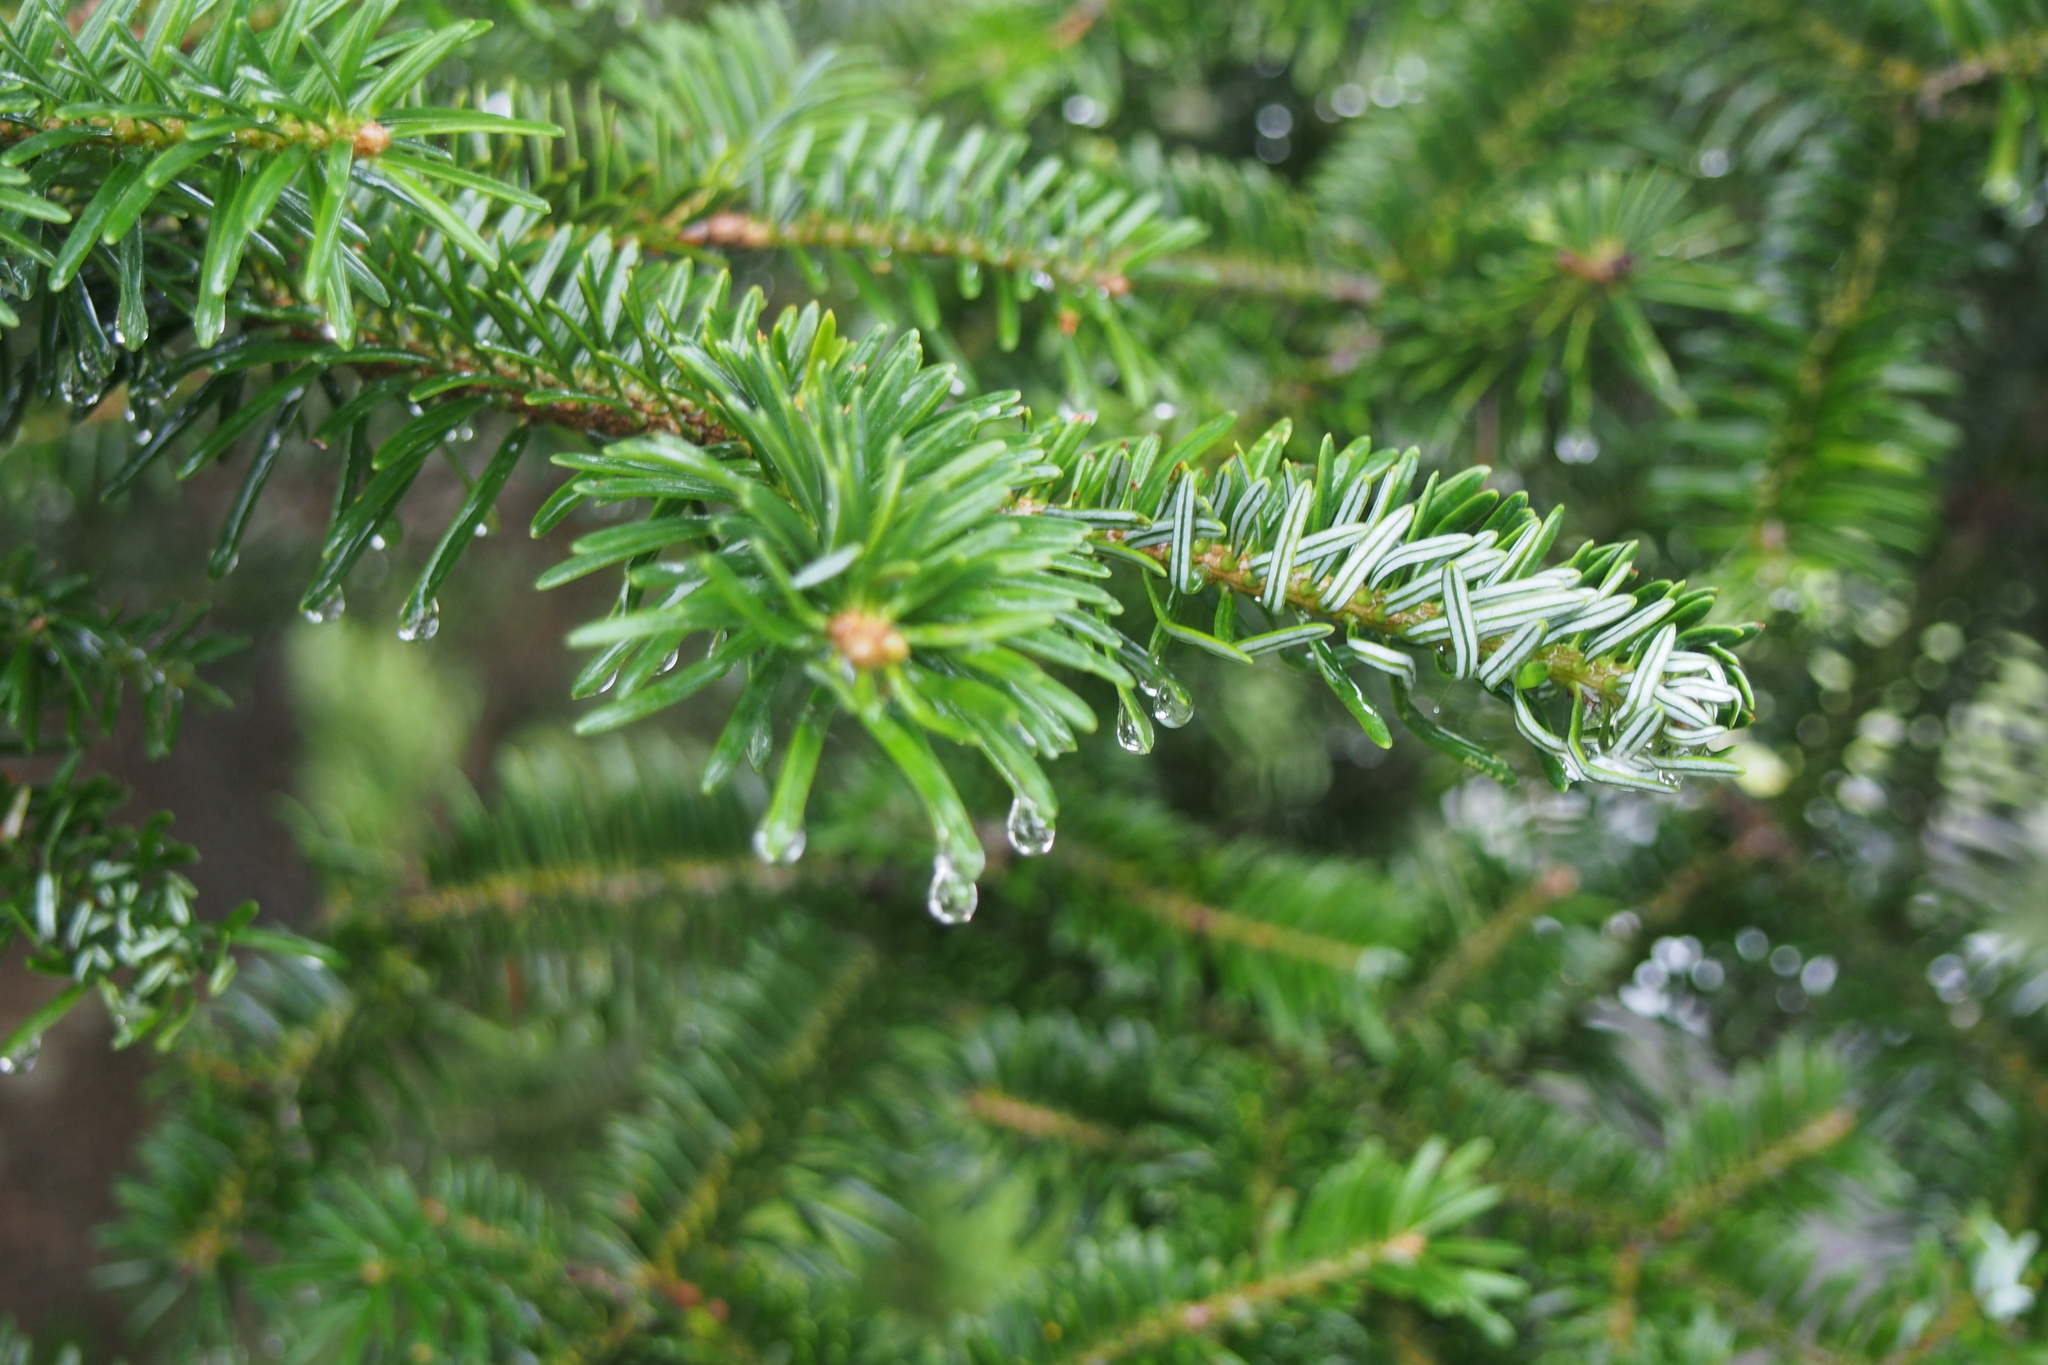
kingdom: Plantae
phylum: Tracheophyta
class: Pinopsida
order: Pinales
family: Pinaceae
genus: Abies
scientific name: Abies homolepis
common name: Nikko fir
